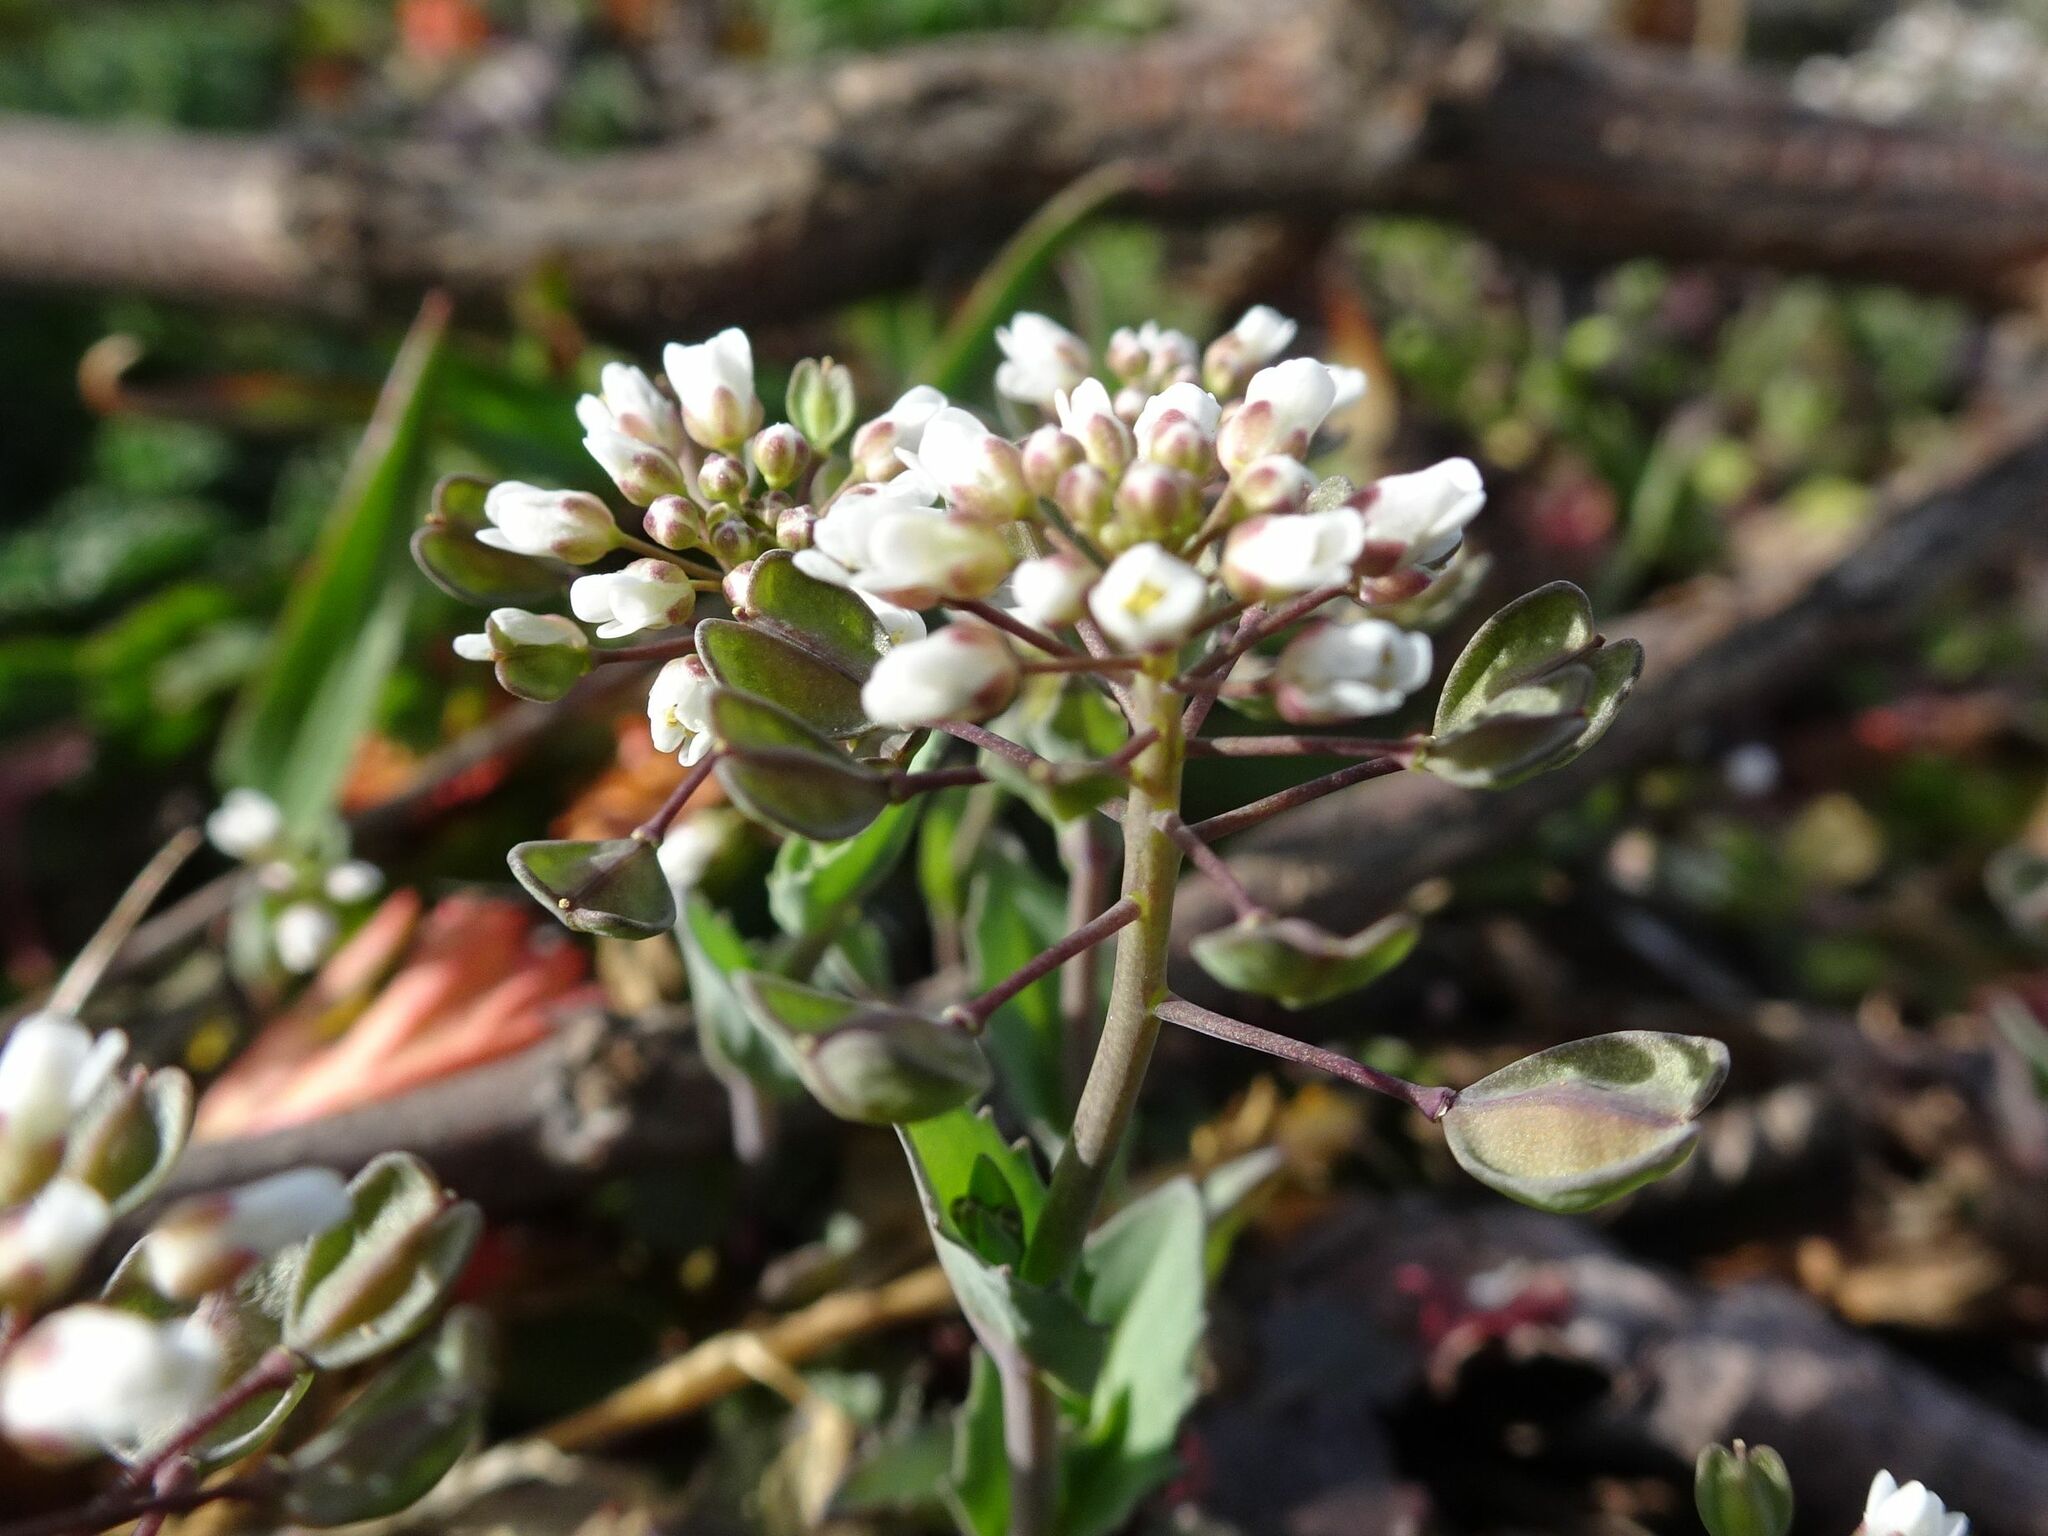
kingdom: Plantae
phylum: Tracheophyta
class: Magnoliopsida
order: Brassicales
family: Brassicaceae
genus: Noccaea
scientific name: Noccaea perfoliata
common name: Perfoliate pennycress
